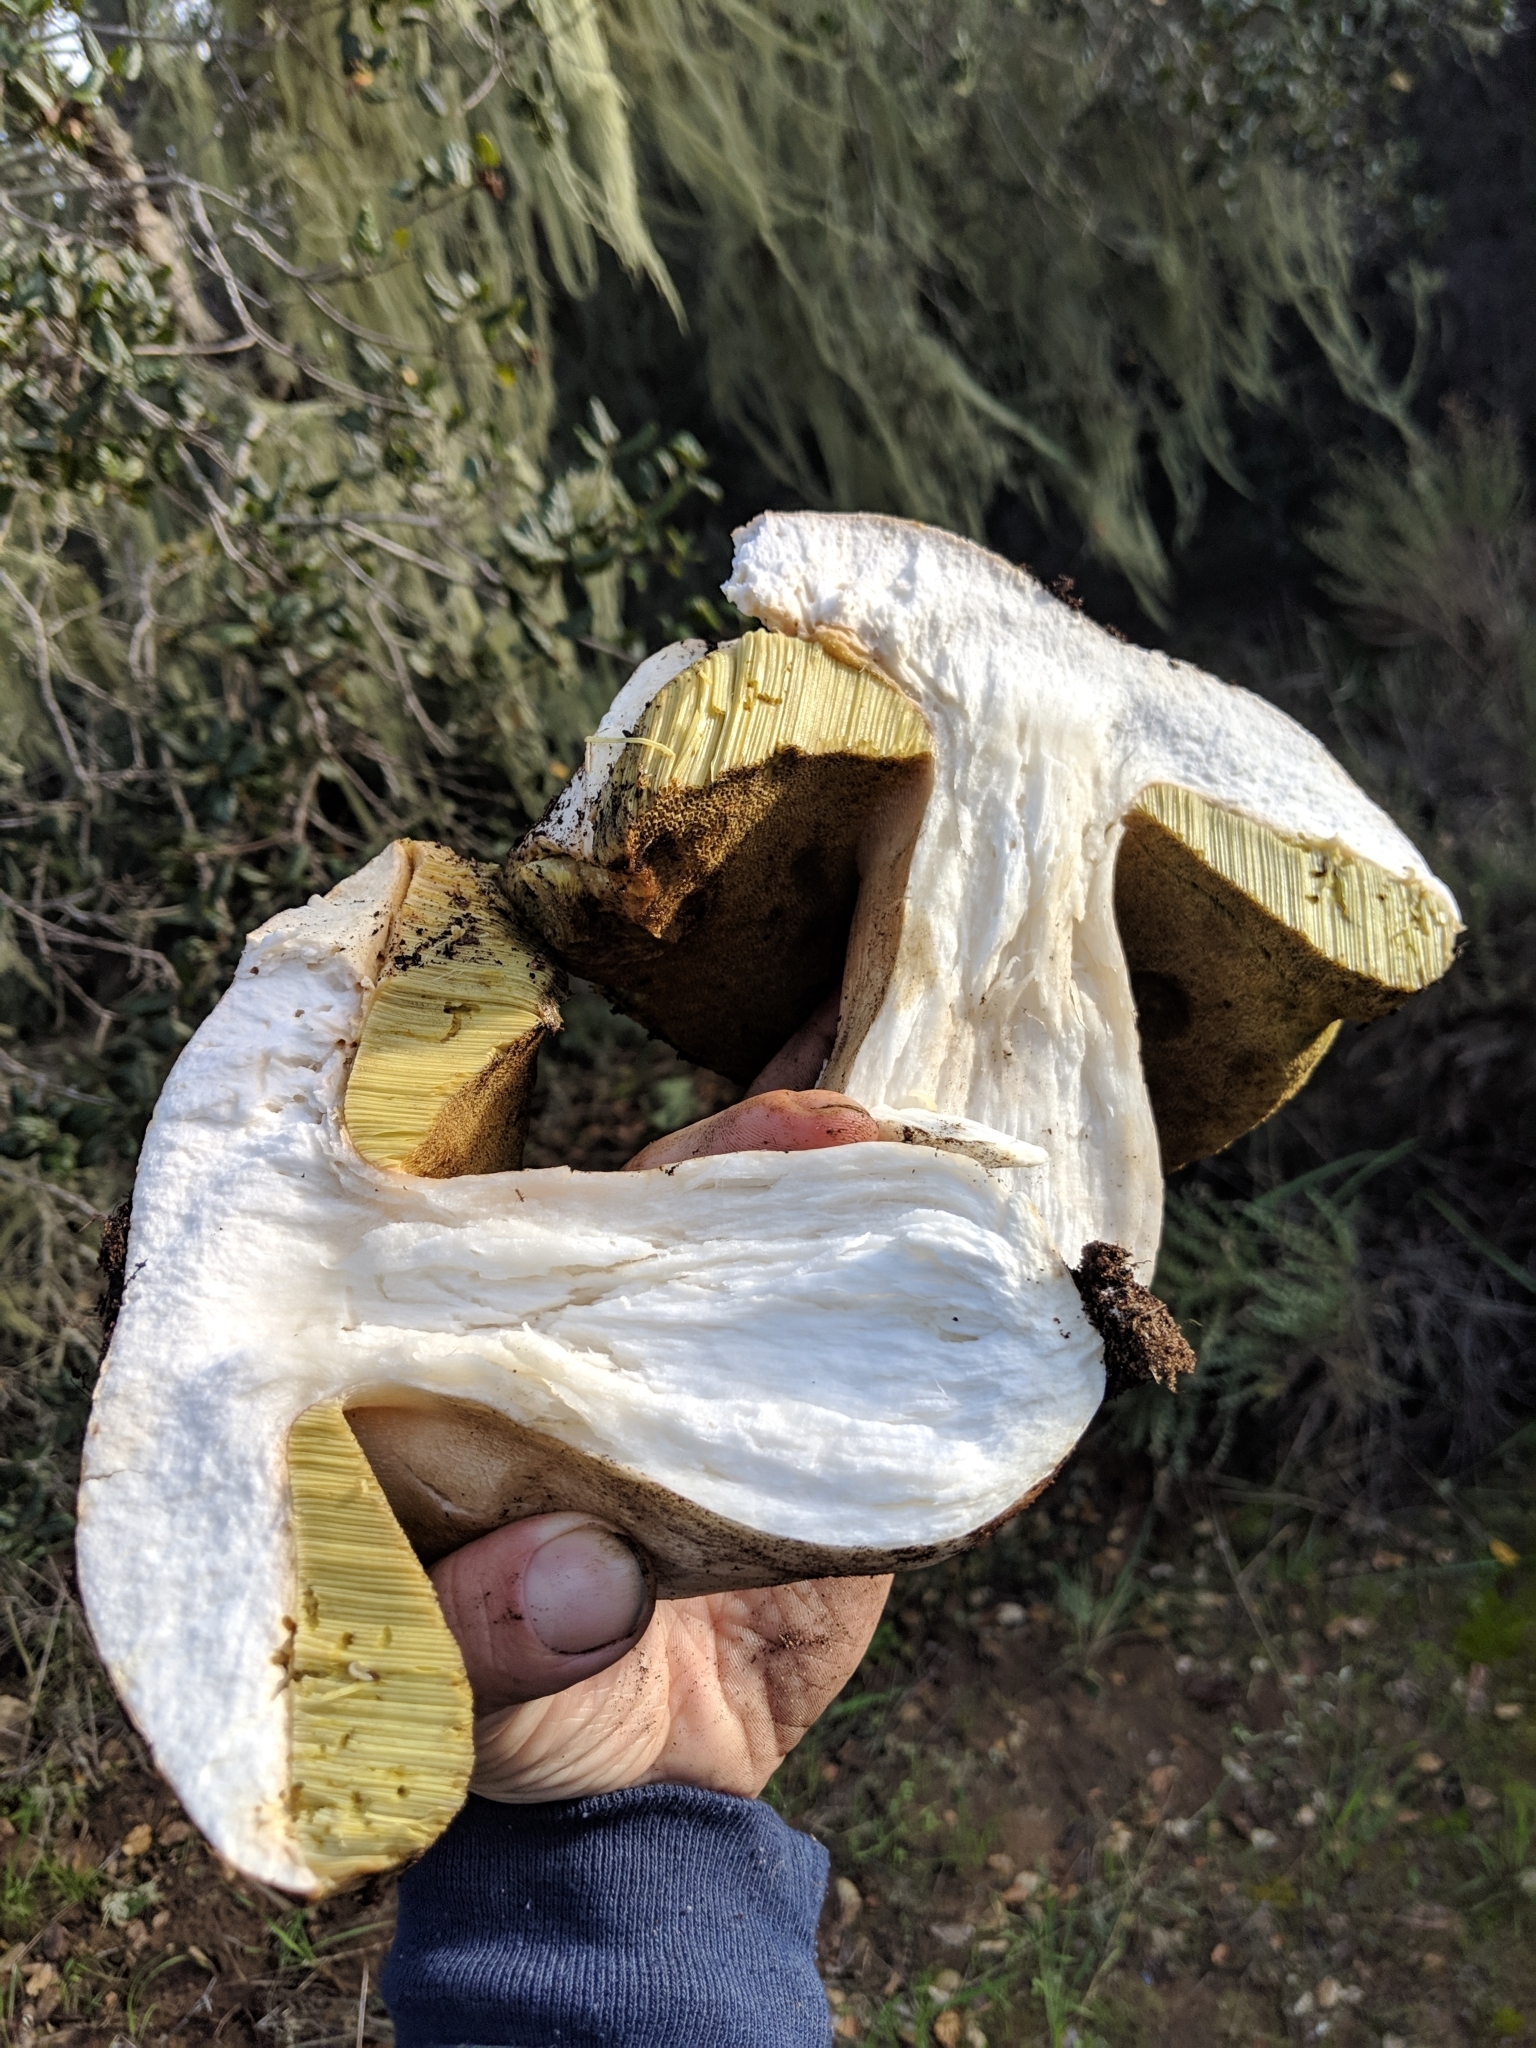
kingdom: Fungi
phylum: Basidiomycota
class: Agaricomycetes
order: Boletales
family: Boletaceae
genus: Boletus
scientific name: Boletus barrowsii
